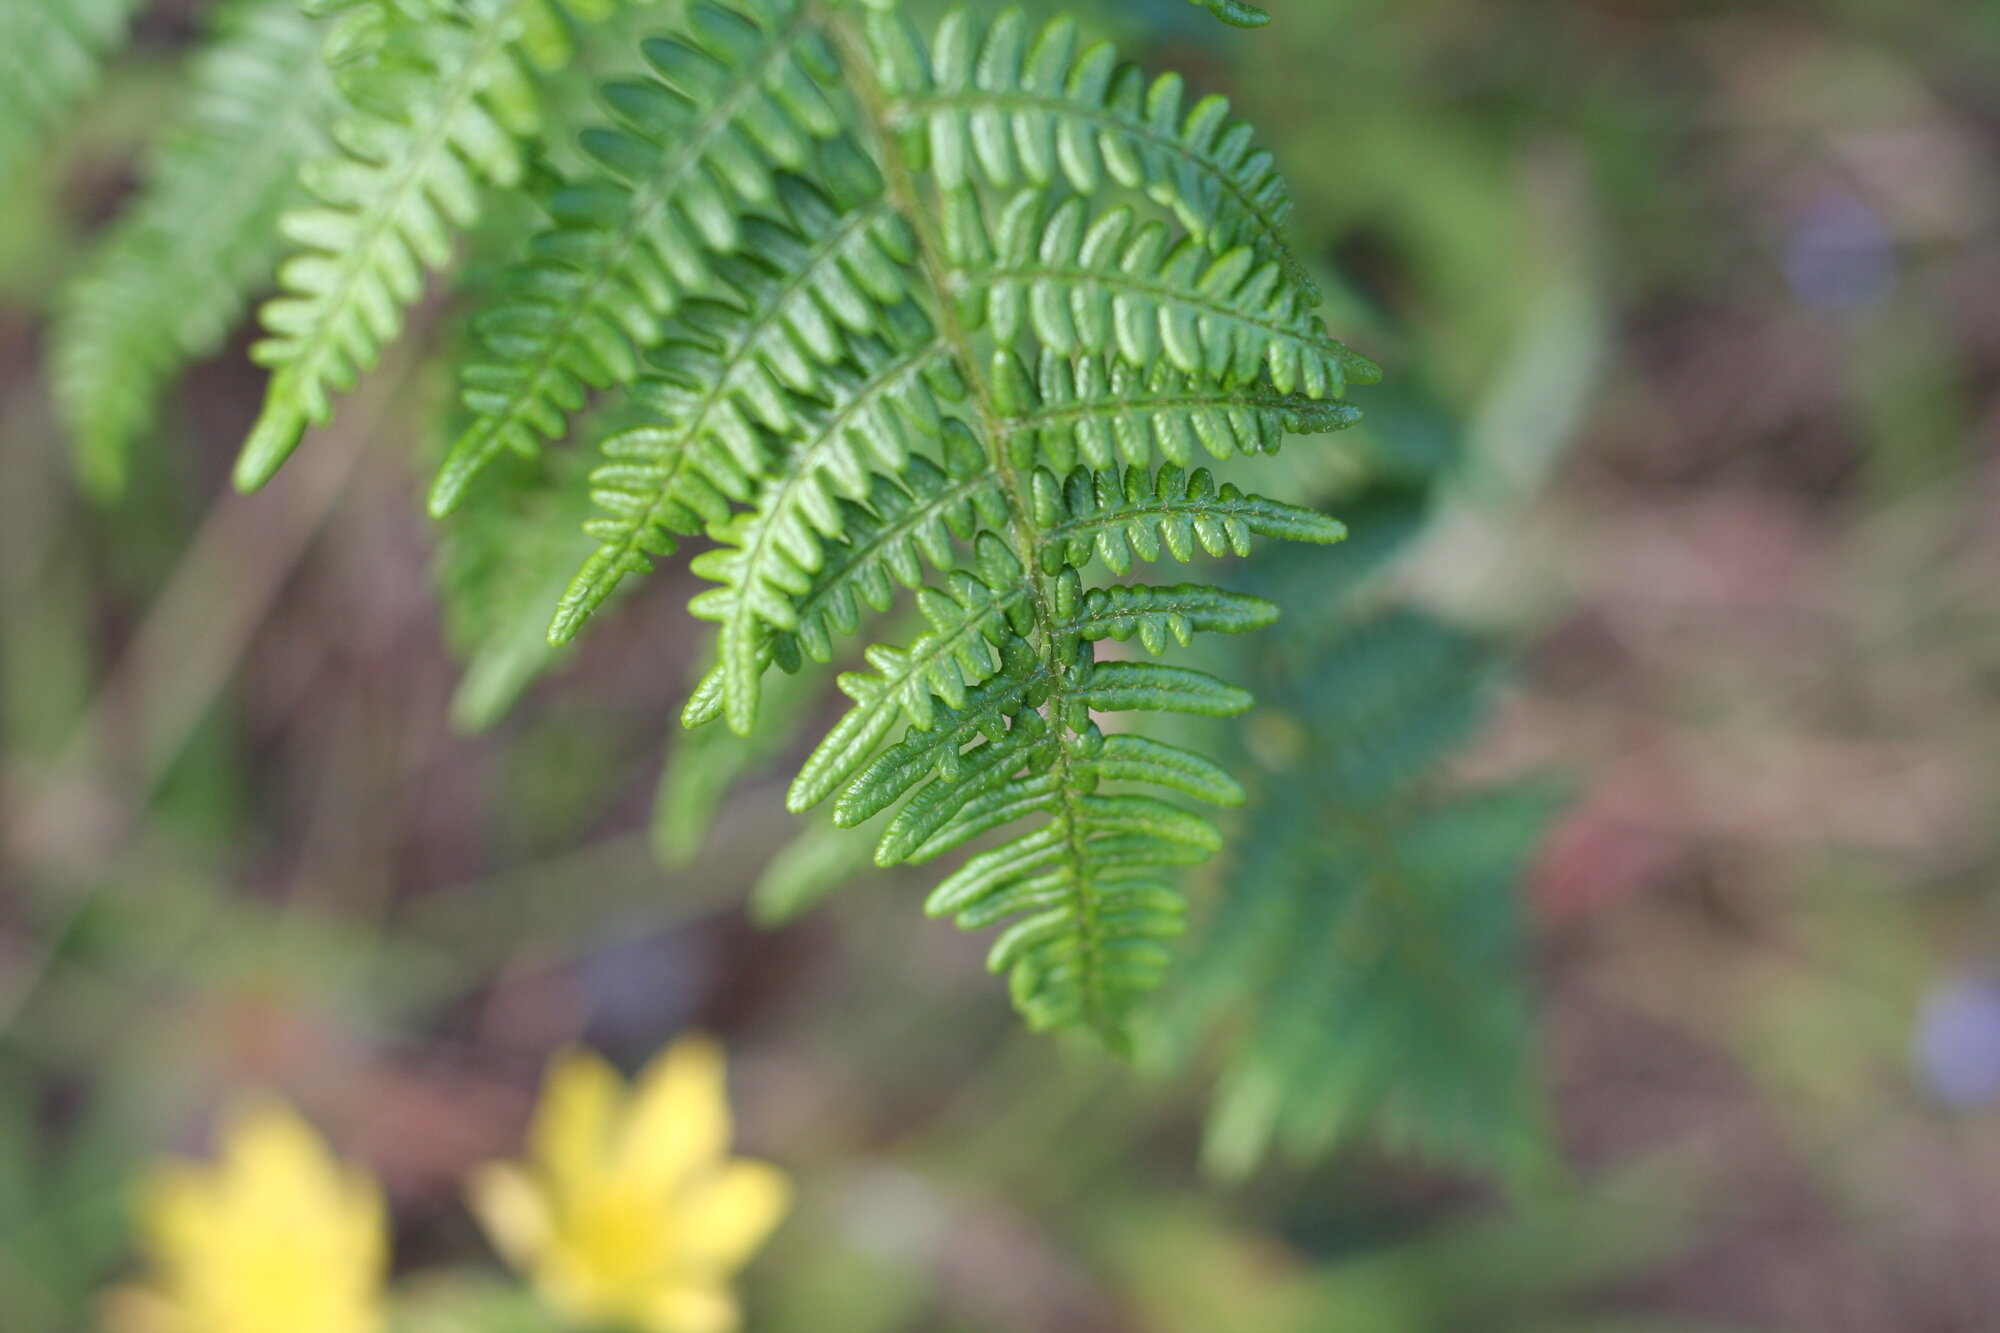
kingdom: Plantae
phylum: Tracheophyta
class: Polypodiopsida
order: Polypodiales
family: Dennstaedtiaceae
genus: Pteridium
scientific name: Pteridium aquilinum
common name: Bracken
